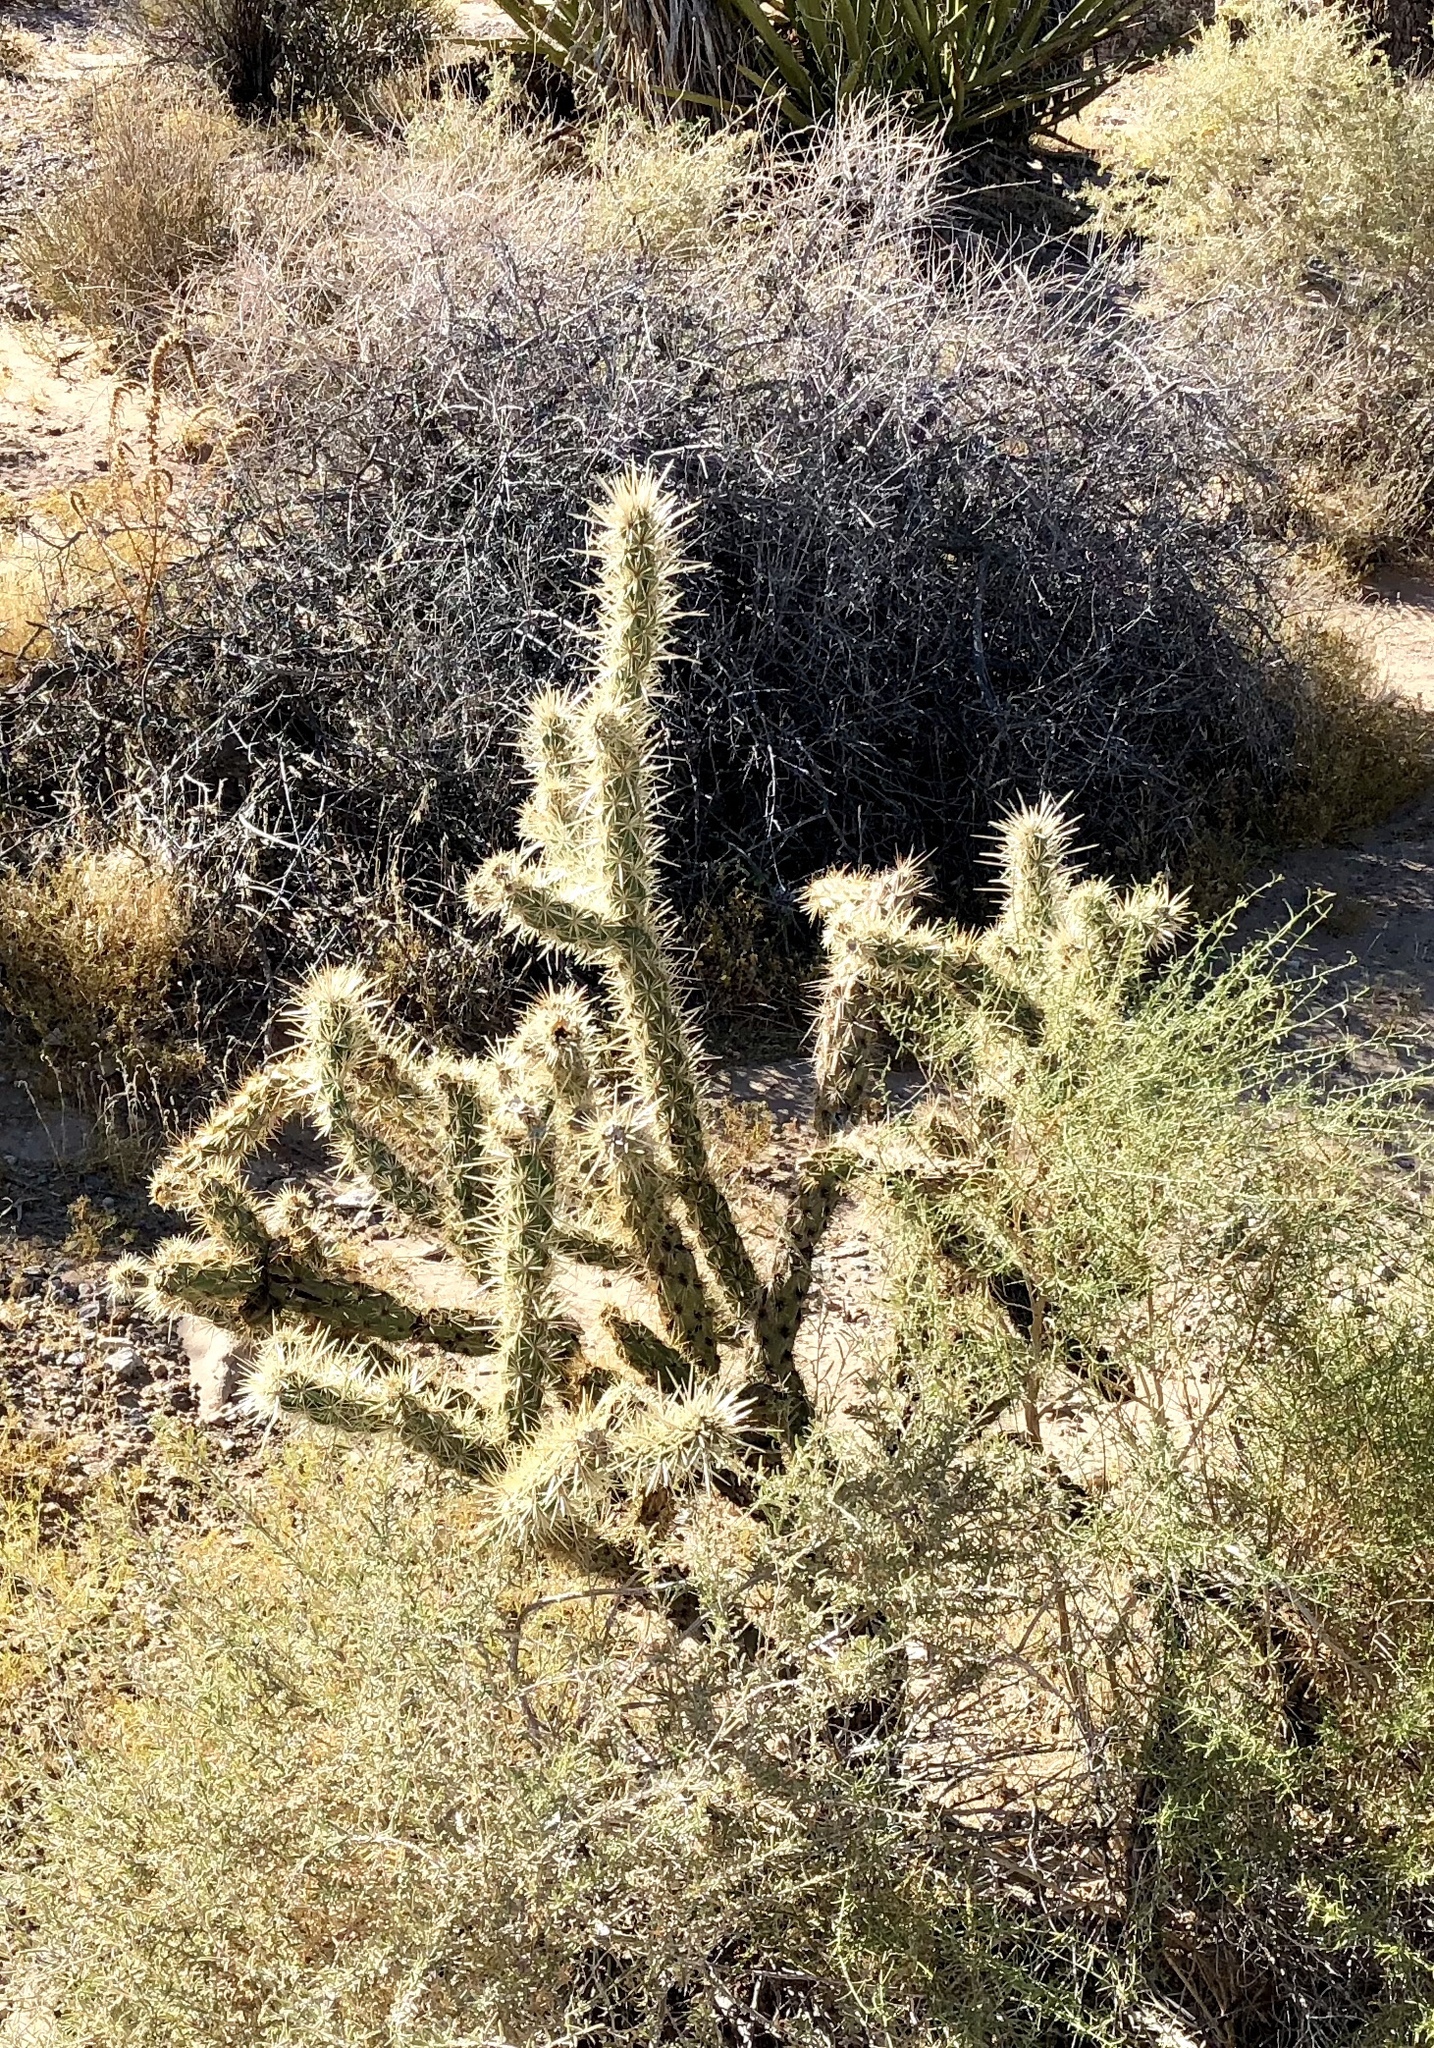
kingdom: Plantae
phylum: Tracheophyta
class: Magnoliopsida
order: Caryophyllales
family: Cactaceae
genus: Cylindropuntia
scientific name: Cylindropuntia echinocarpa
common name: Ground cholla
